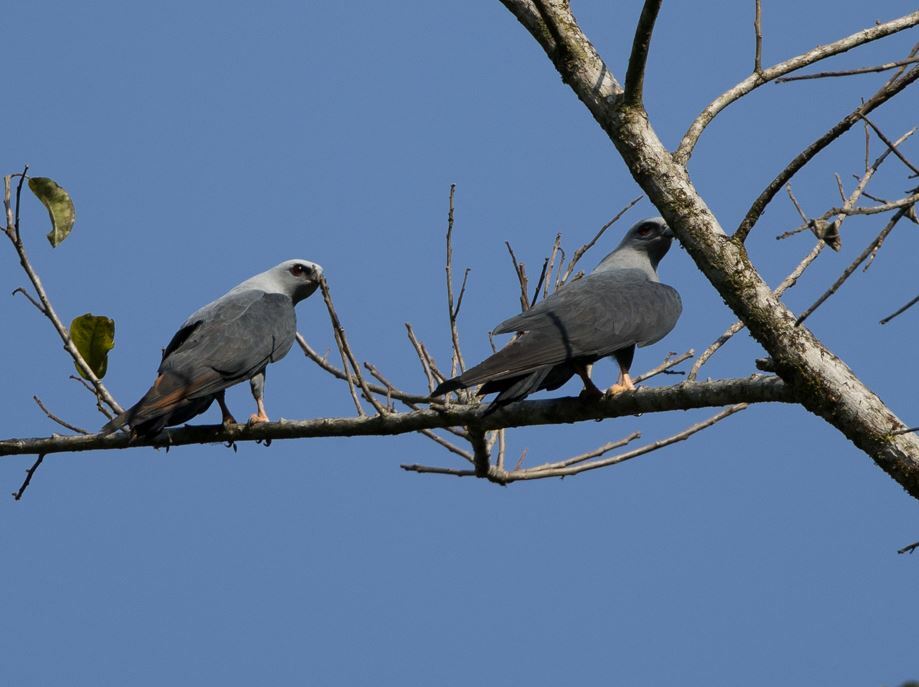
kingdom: Animalia
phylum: Chordata
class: Aves
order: Accipitriformes
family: Accipitridae
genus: Ictinia
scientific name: Ictinia plumbea
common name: Plumbeous kite
